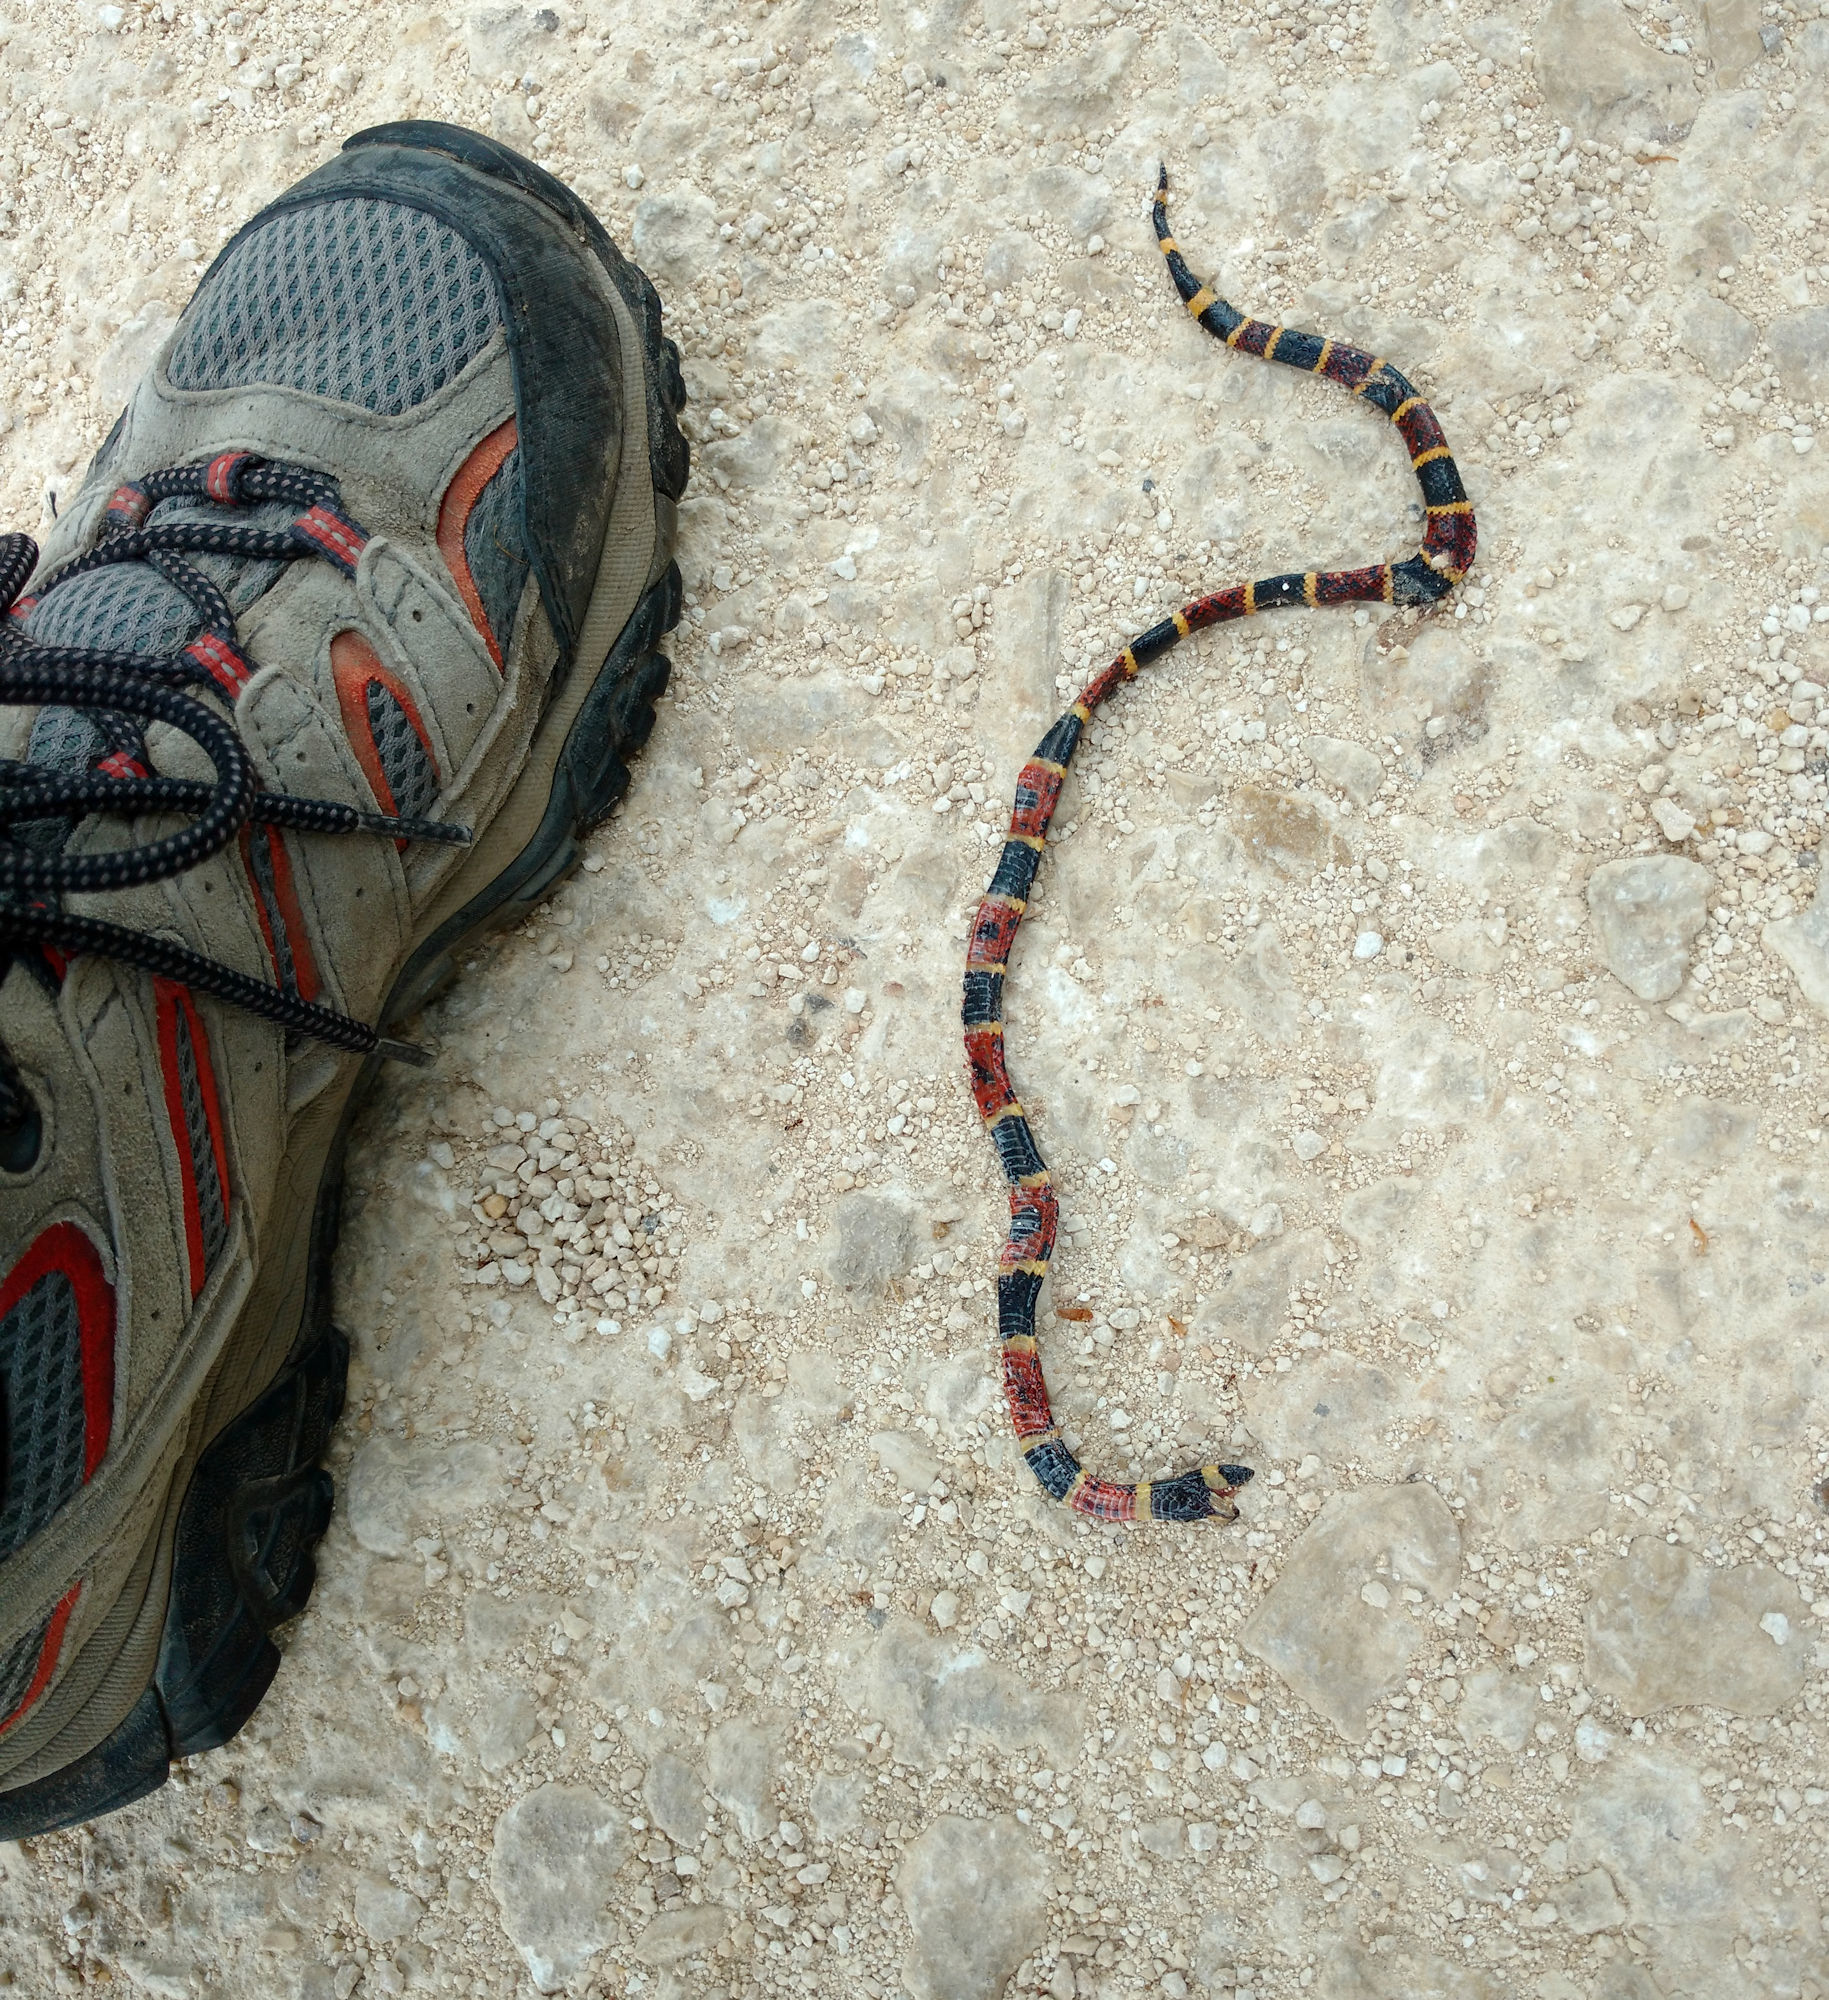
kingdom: Animalia
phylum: Chordata
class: Squamata
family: Elapidae
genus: Micrurus
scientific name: Micrurus tener
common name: Texas coral snake
